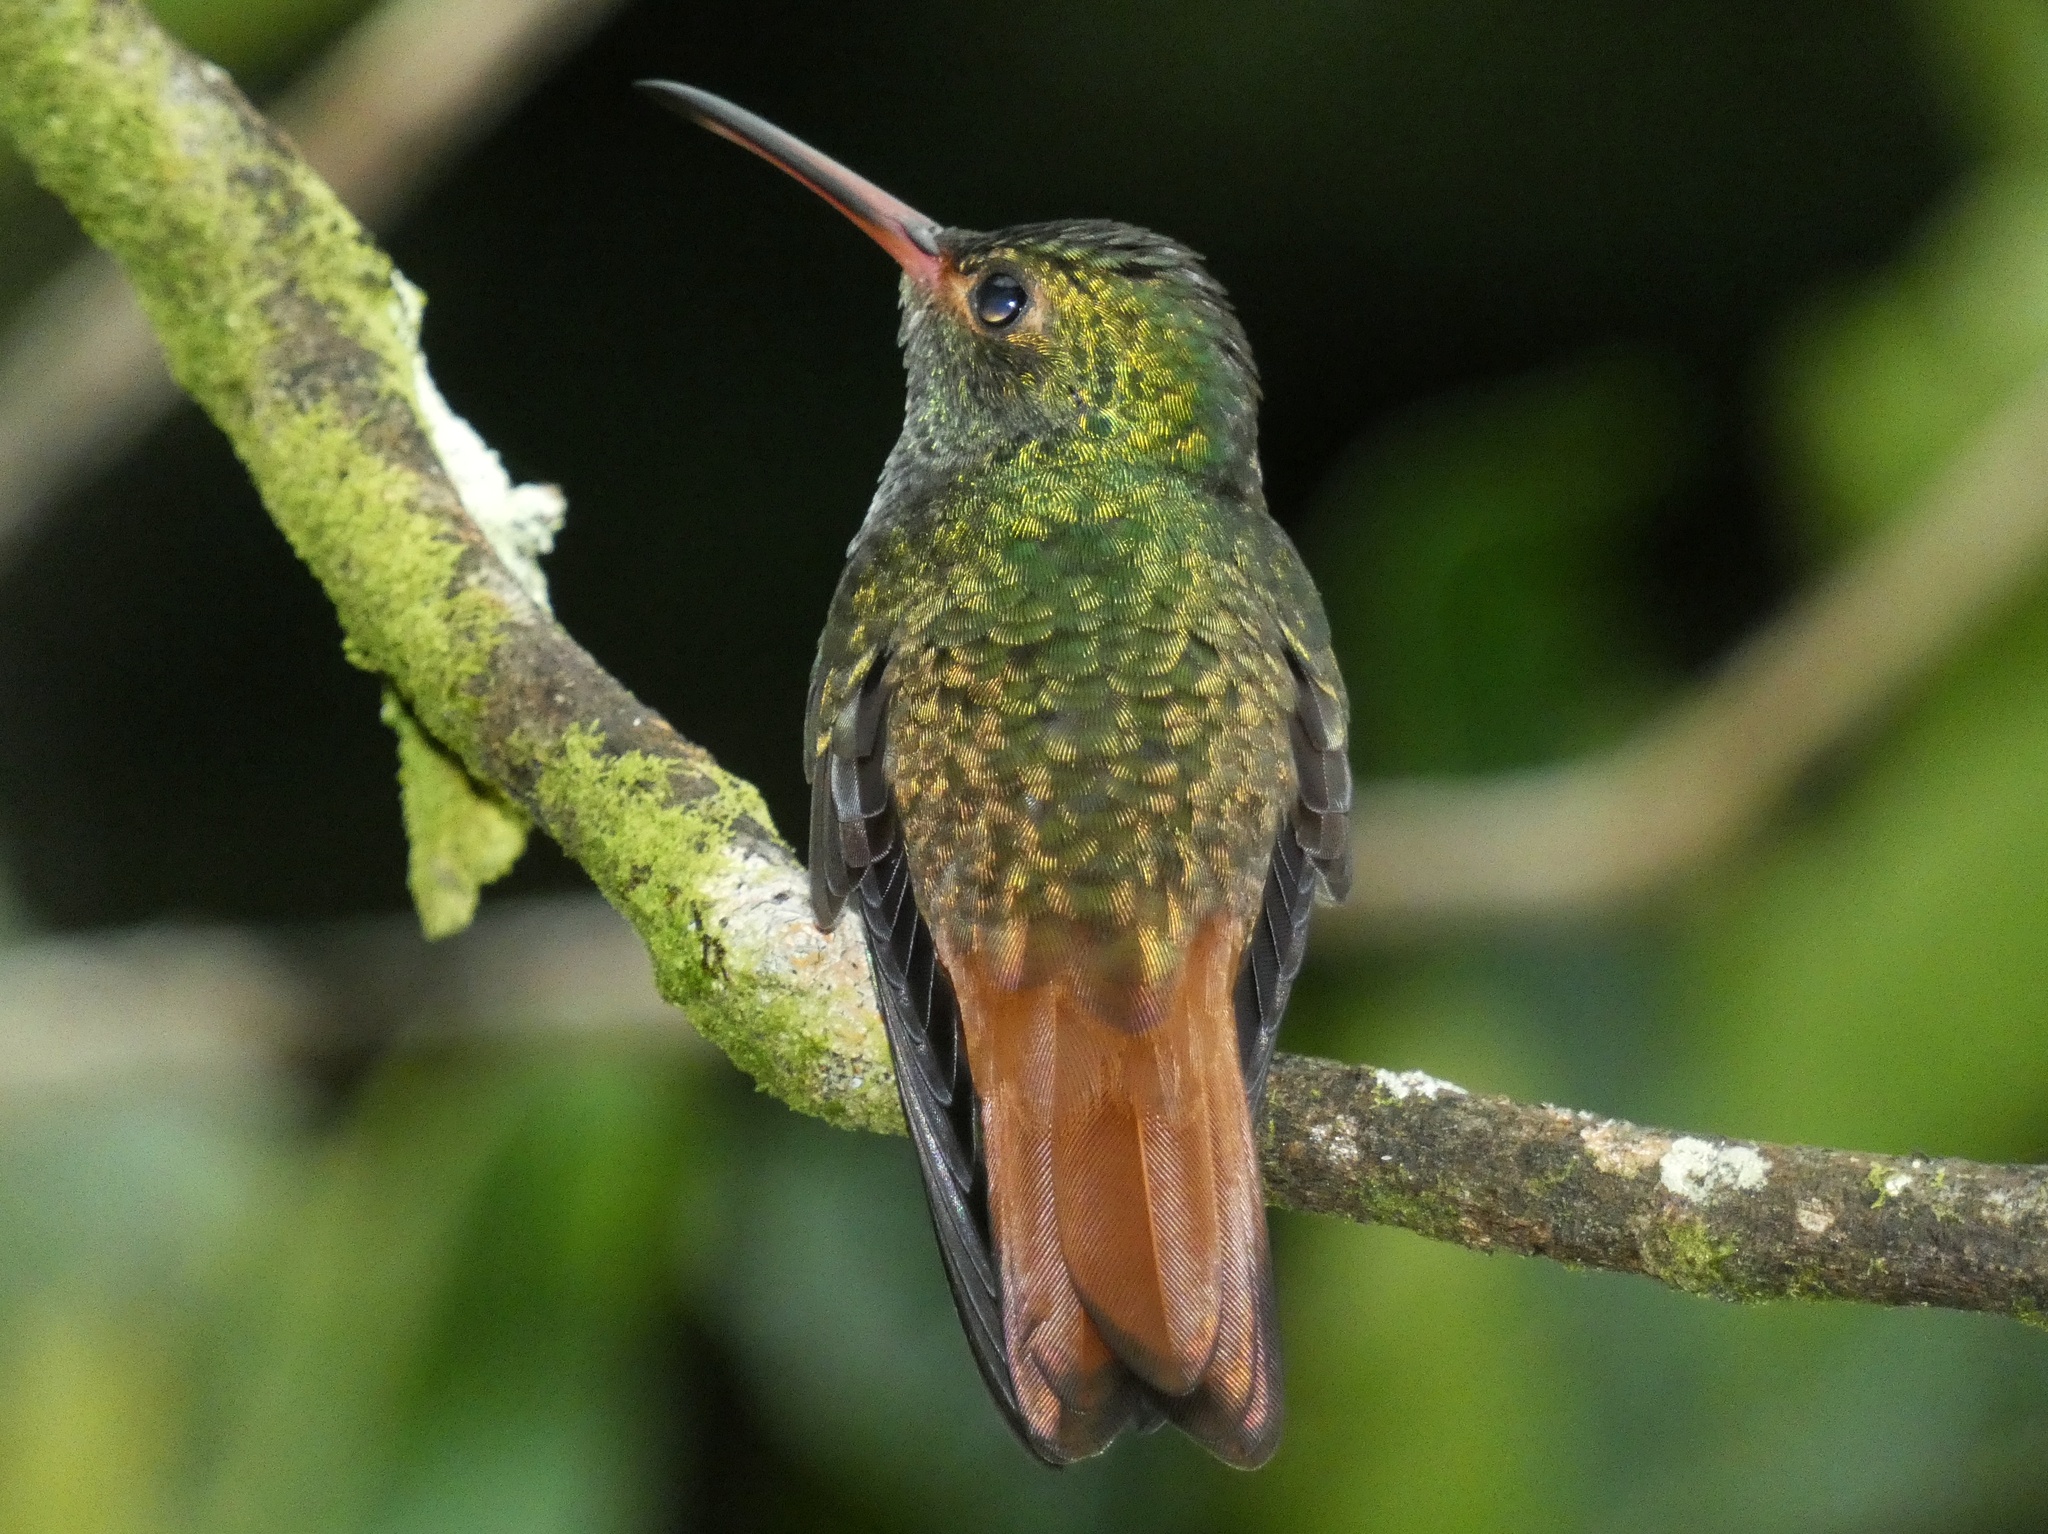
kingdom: Animalia
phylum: Chordata
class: Aves
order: Apodiformes
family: Trochilidae
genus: Amazilia
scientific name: Amazilia tzacatl
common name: Rufous-tailed hummingbird
